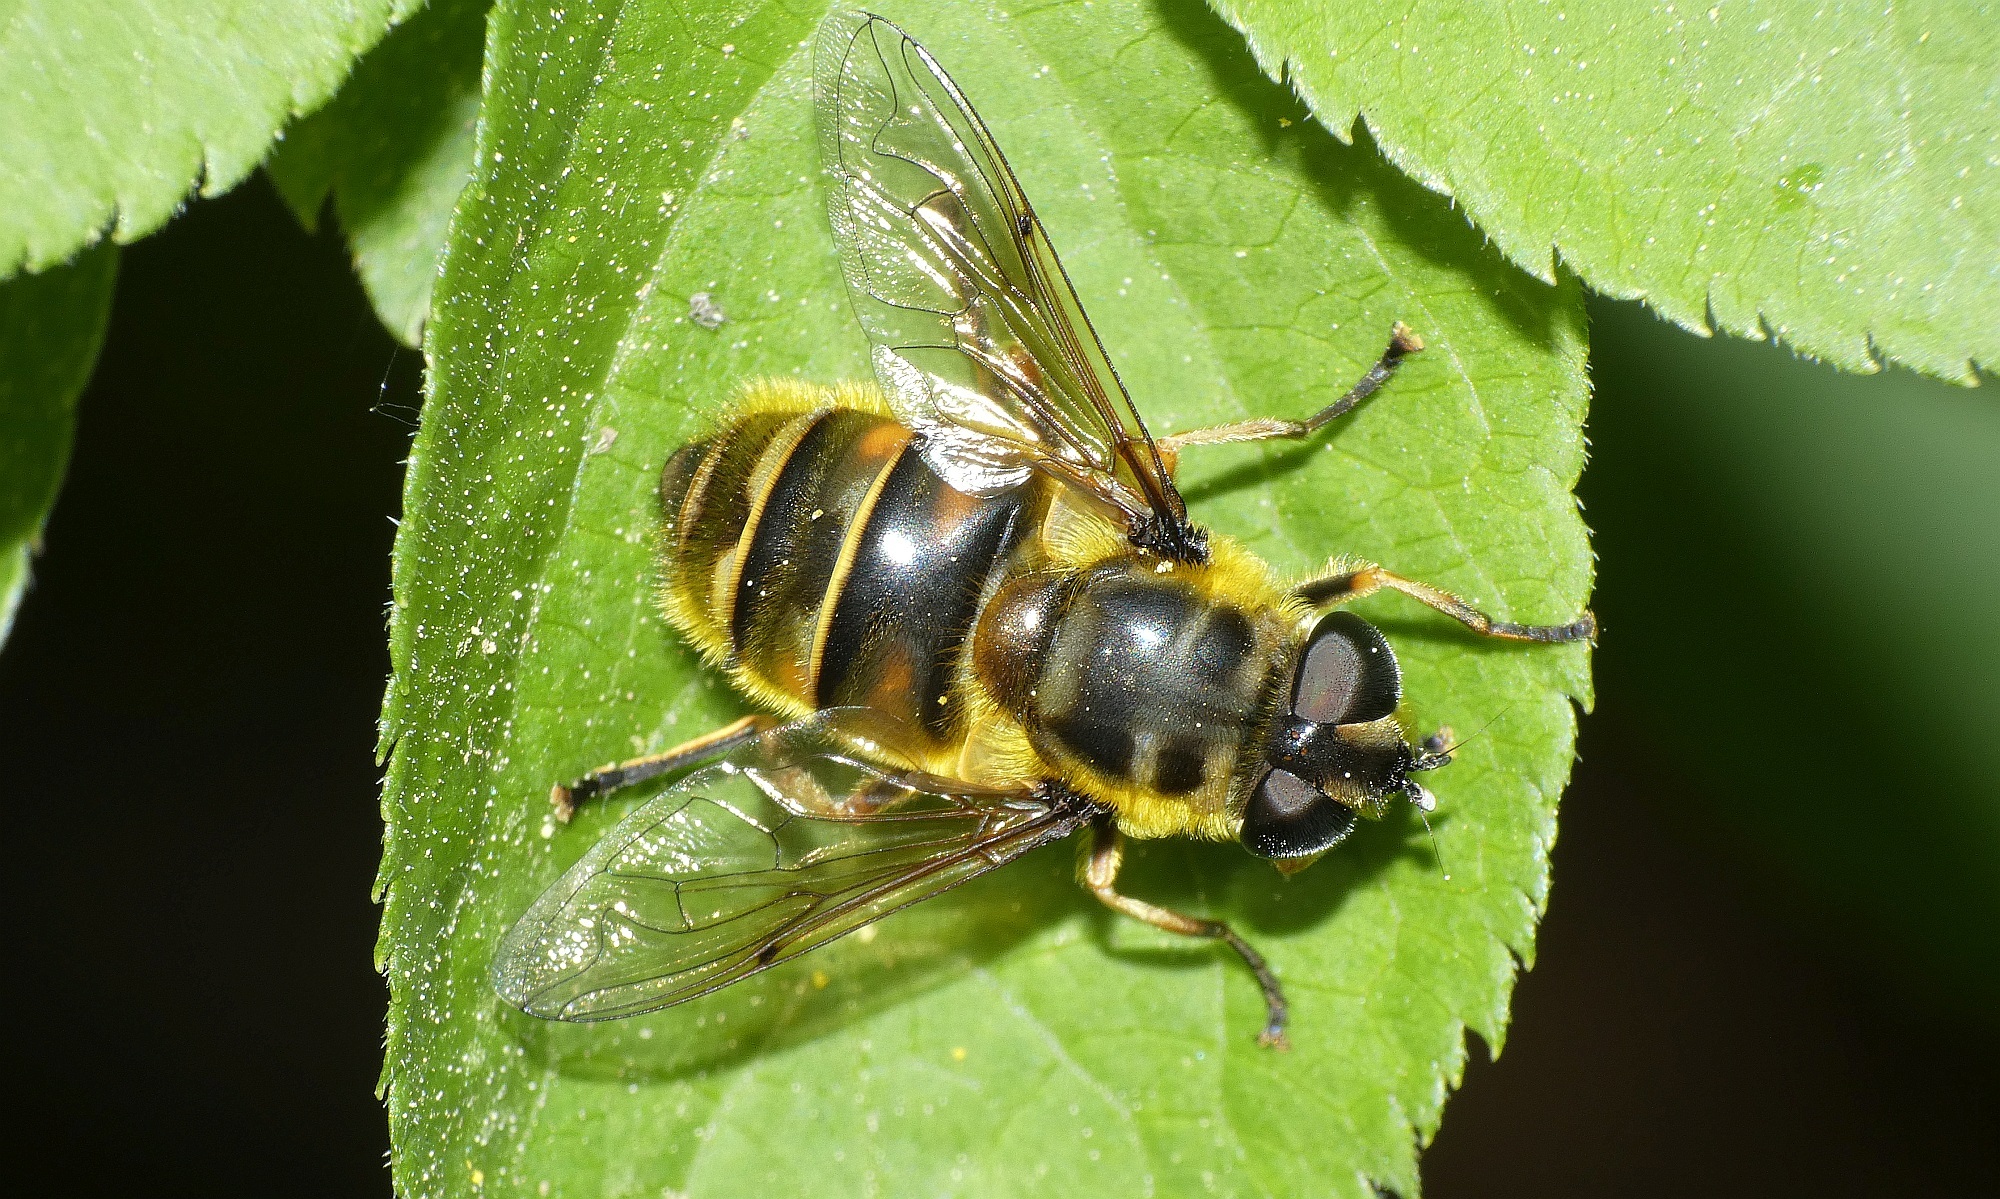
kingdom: Animalia
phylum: Arthropoda
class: Insecta
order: Diptera
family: Syrphidae
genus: Myathropa
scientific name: Myathropa florea
